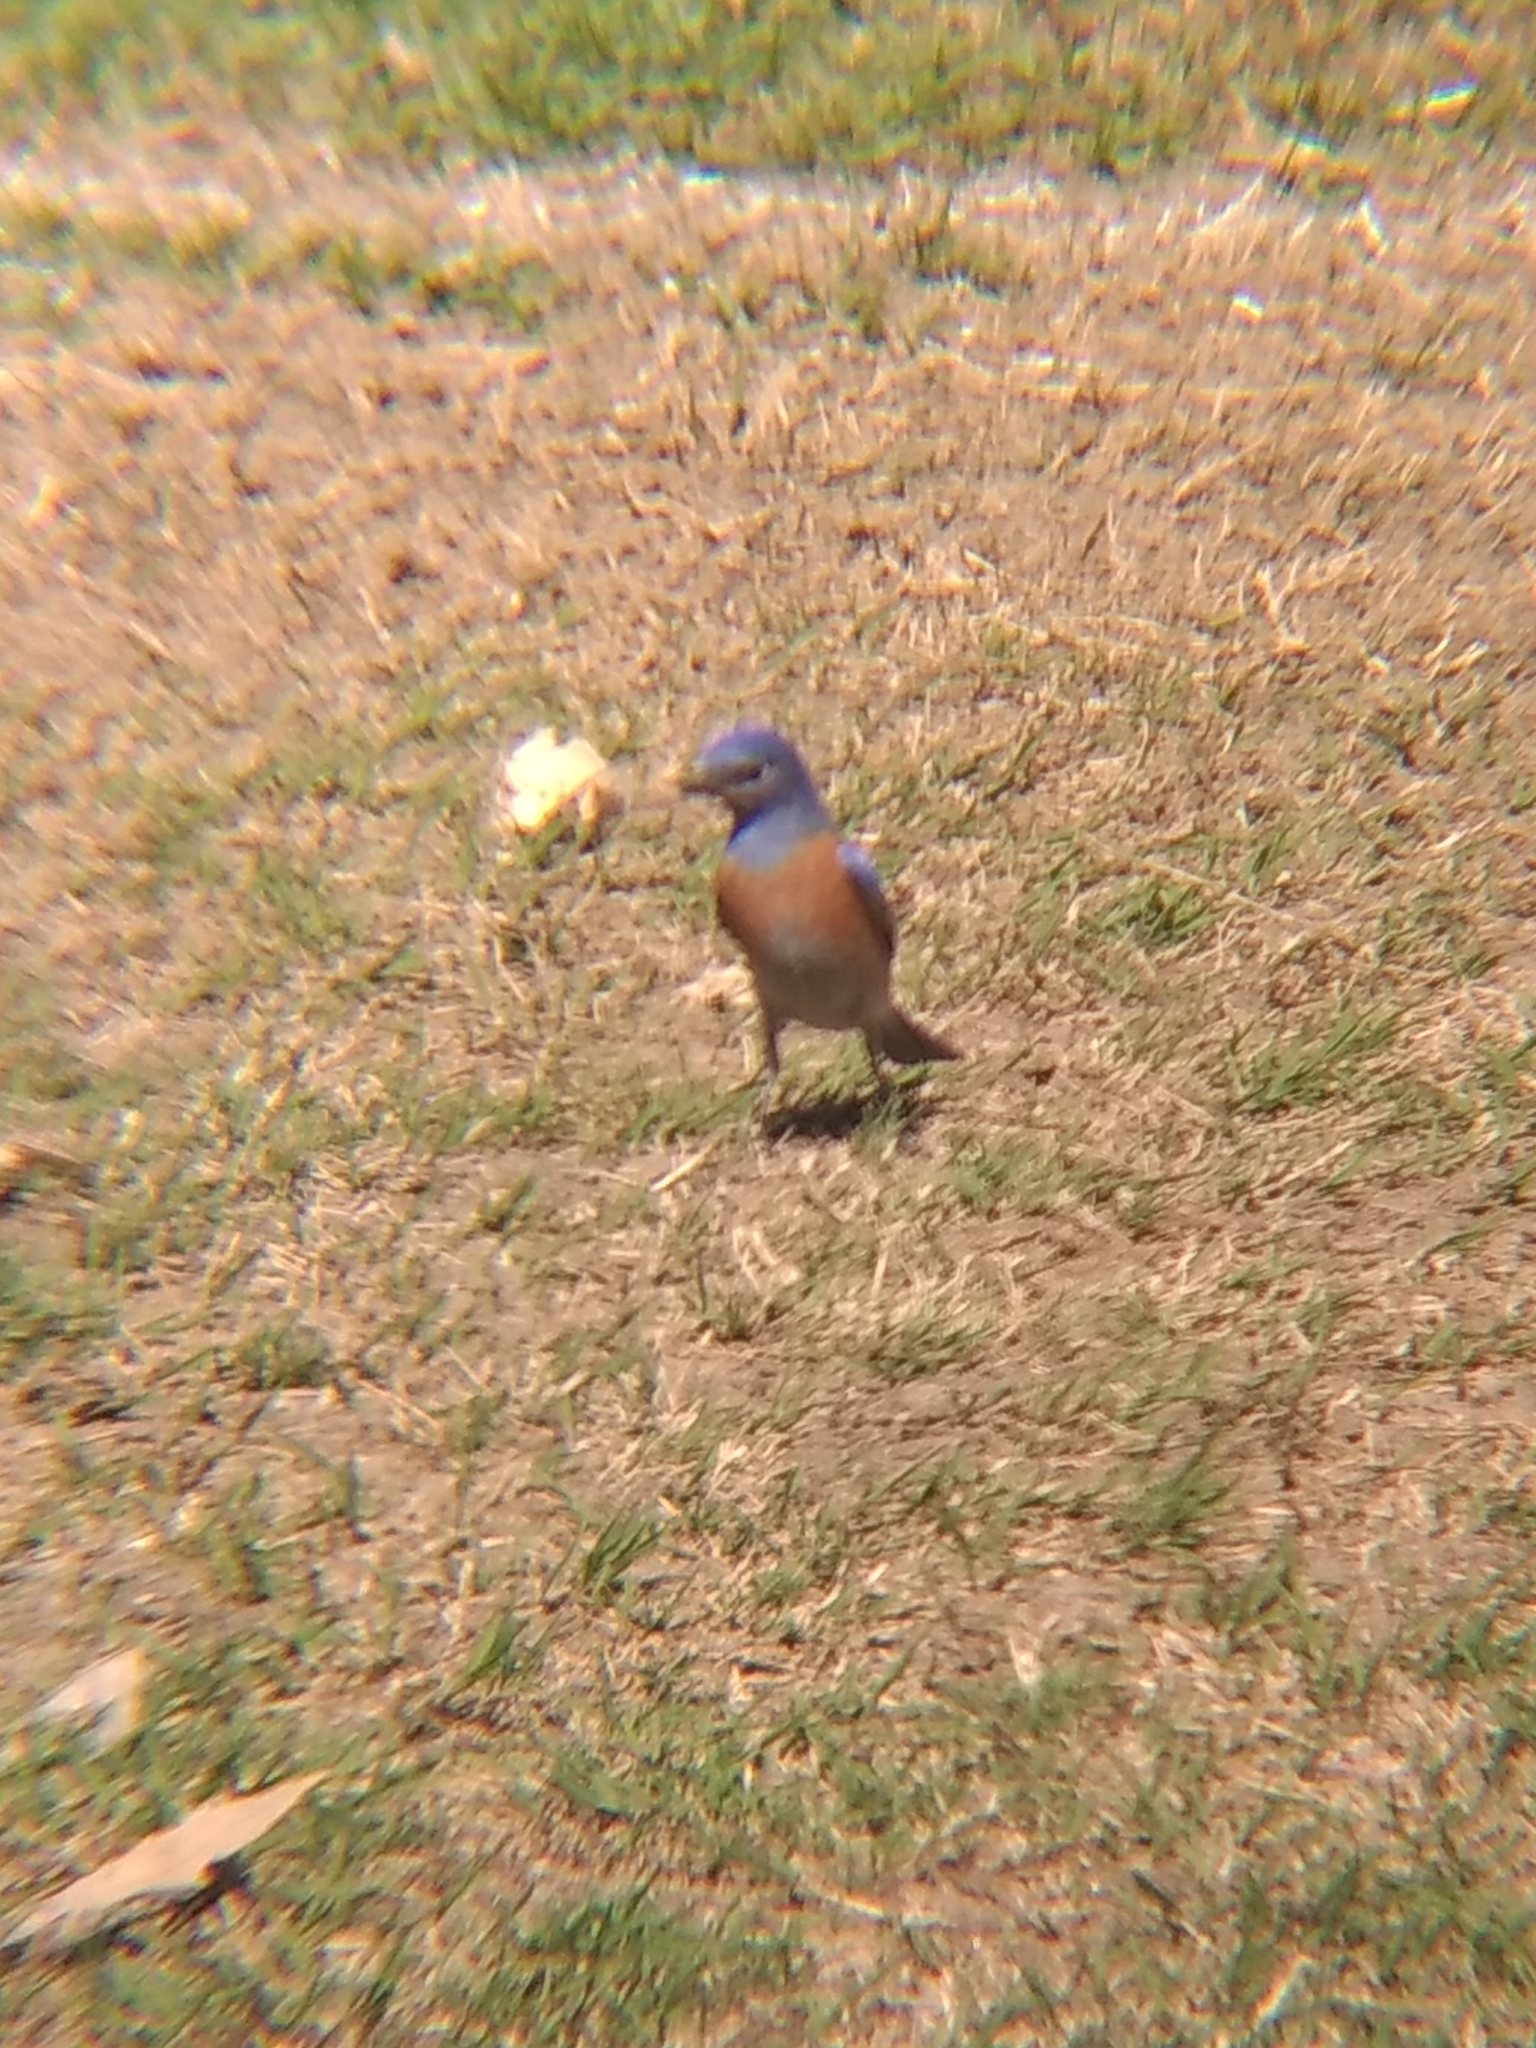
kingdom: Animalia
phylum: Chordata
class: Aves
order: Passeriformes
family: Turdidae
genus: Sialia
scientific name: Sialia mexicana
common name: Western bluebird
